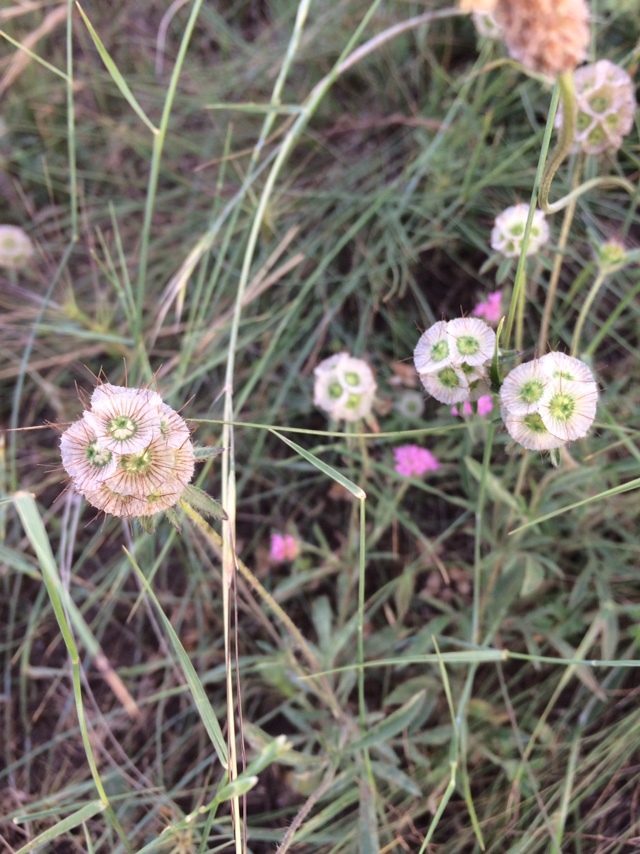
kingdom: Plantae
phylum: Tracheophyta
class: Magnoliopsida
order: Dipsacales
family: Caprifoliaceae
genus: Lomelosia
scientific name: Lomelosia micrantha
